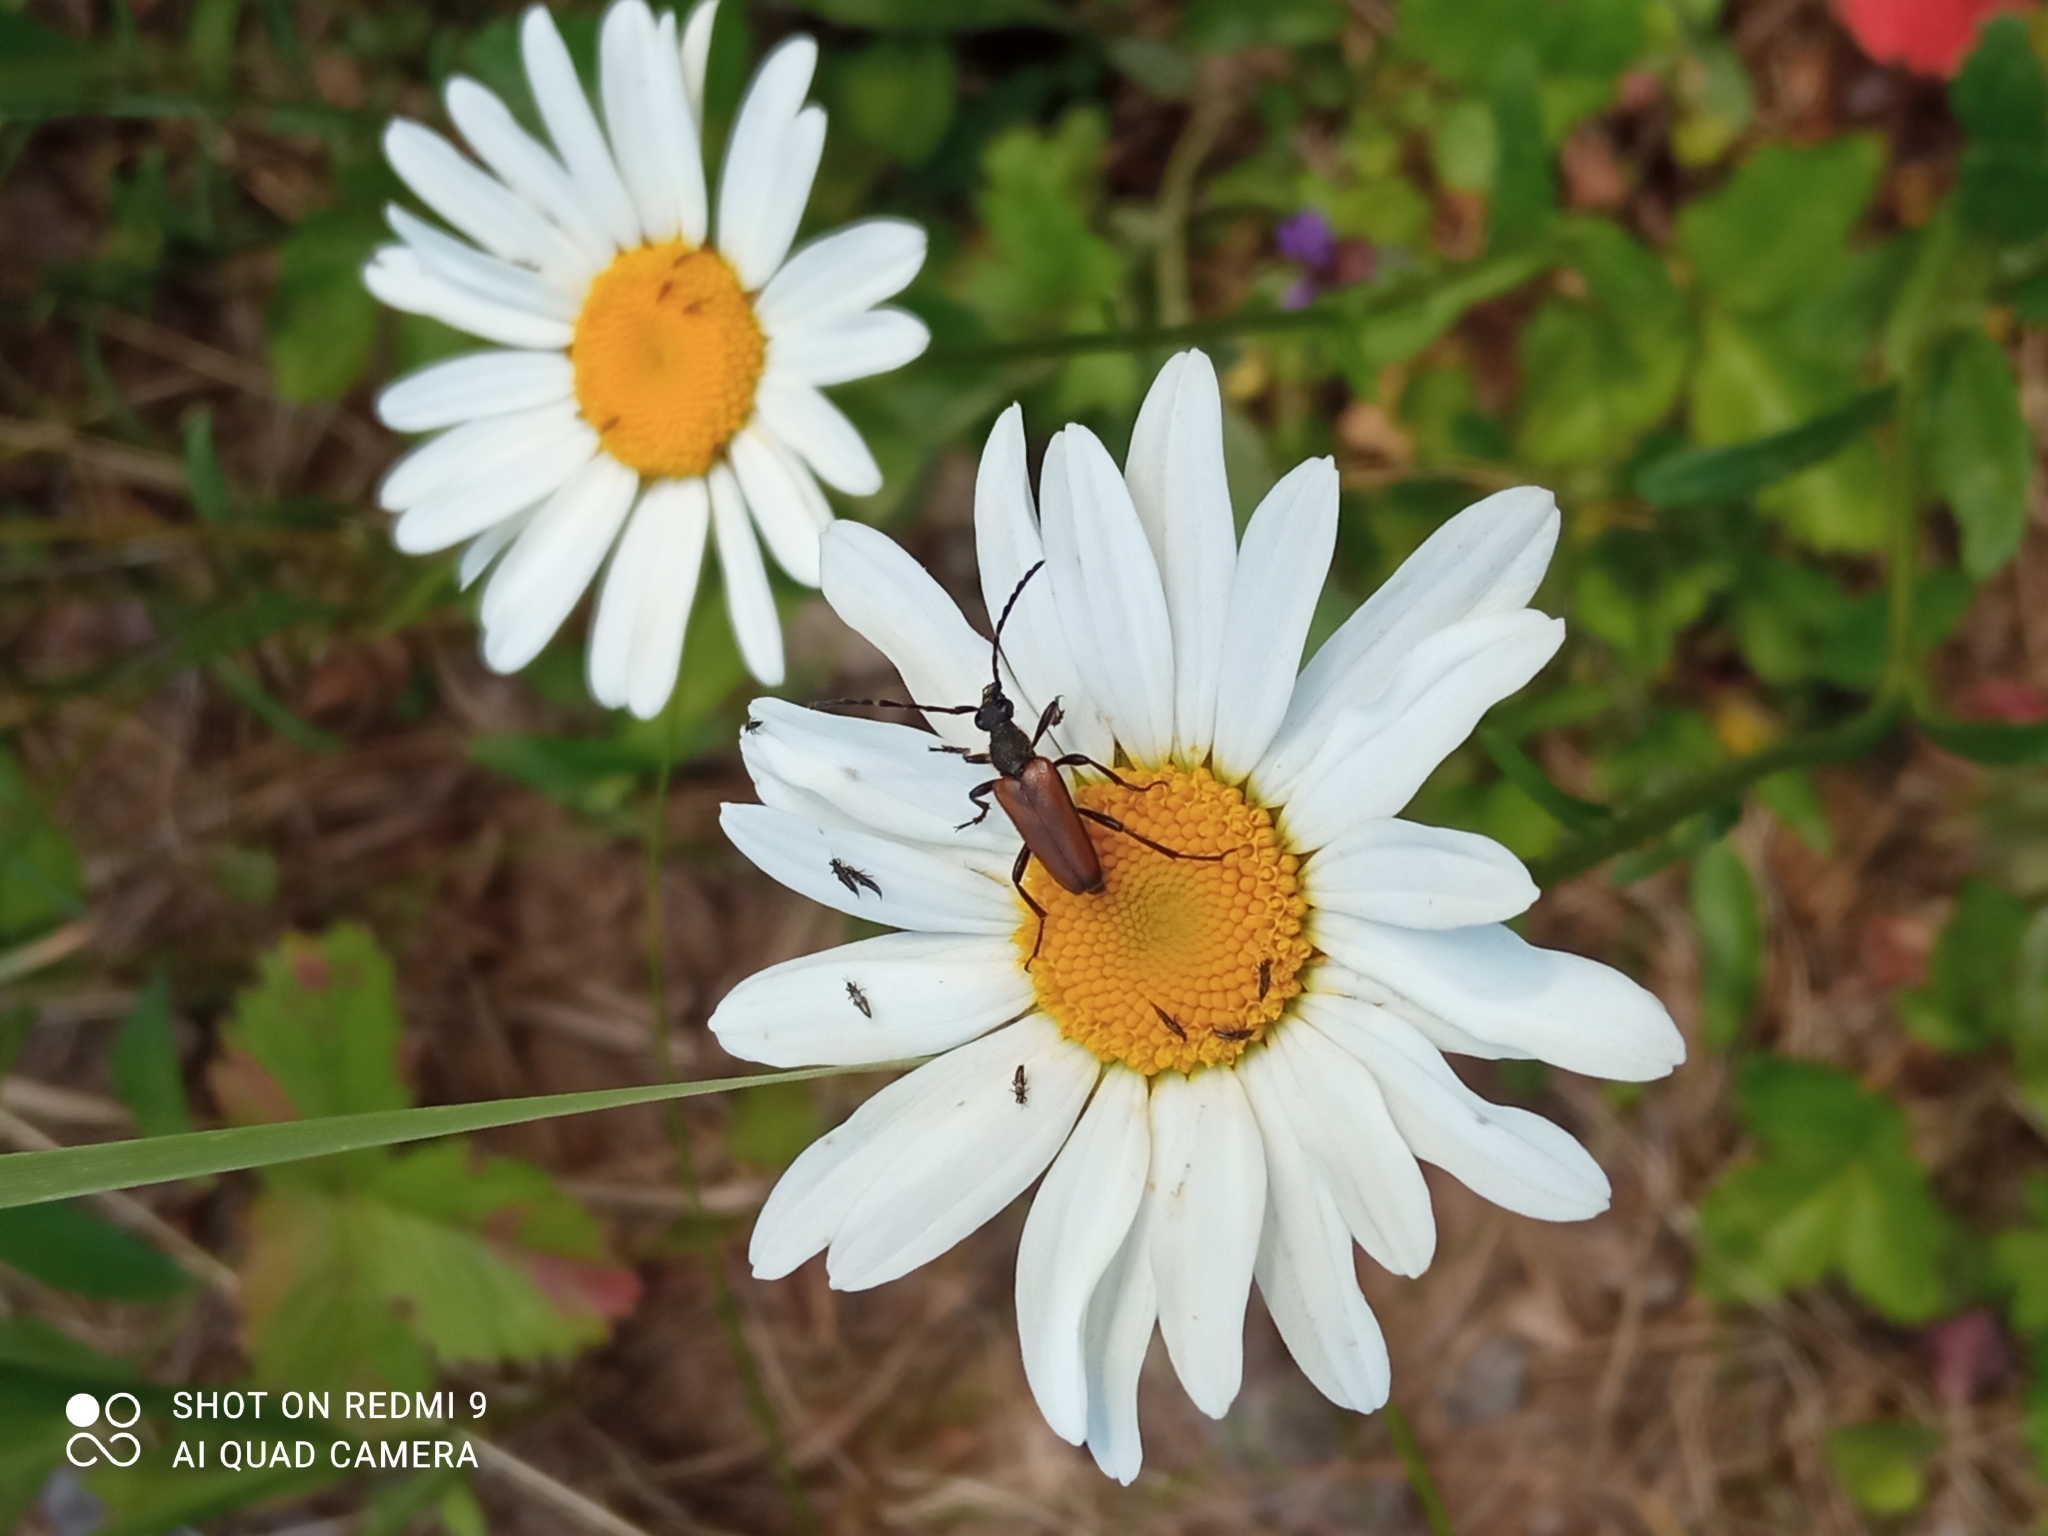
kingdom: Animalia
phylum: Arthropoda
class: Insecta
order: Coleoptera
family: Cerambycidae
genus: Paracorymbia
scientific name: Paracorymbia maculicornis
